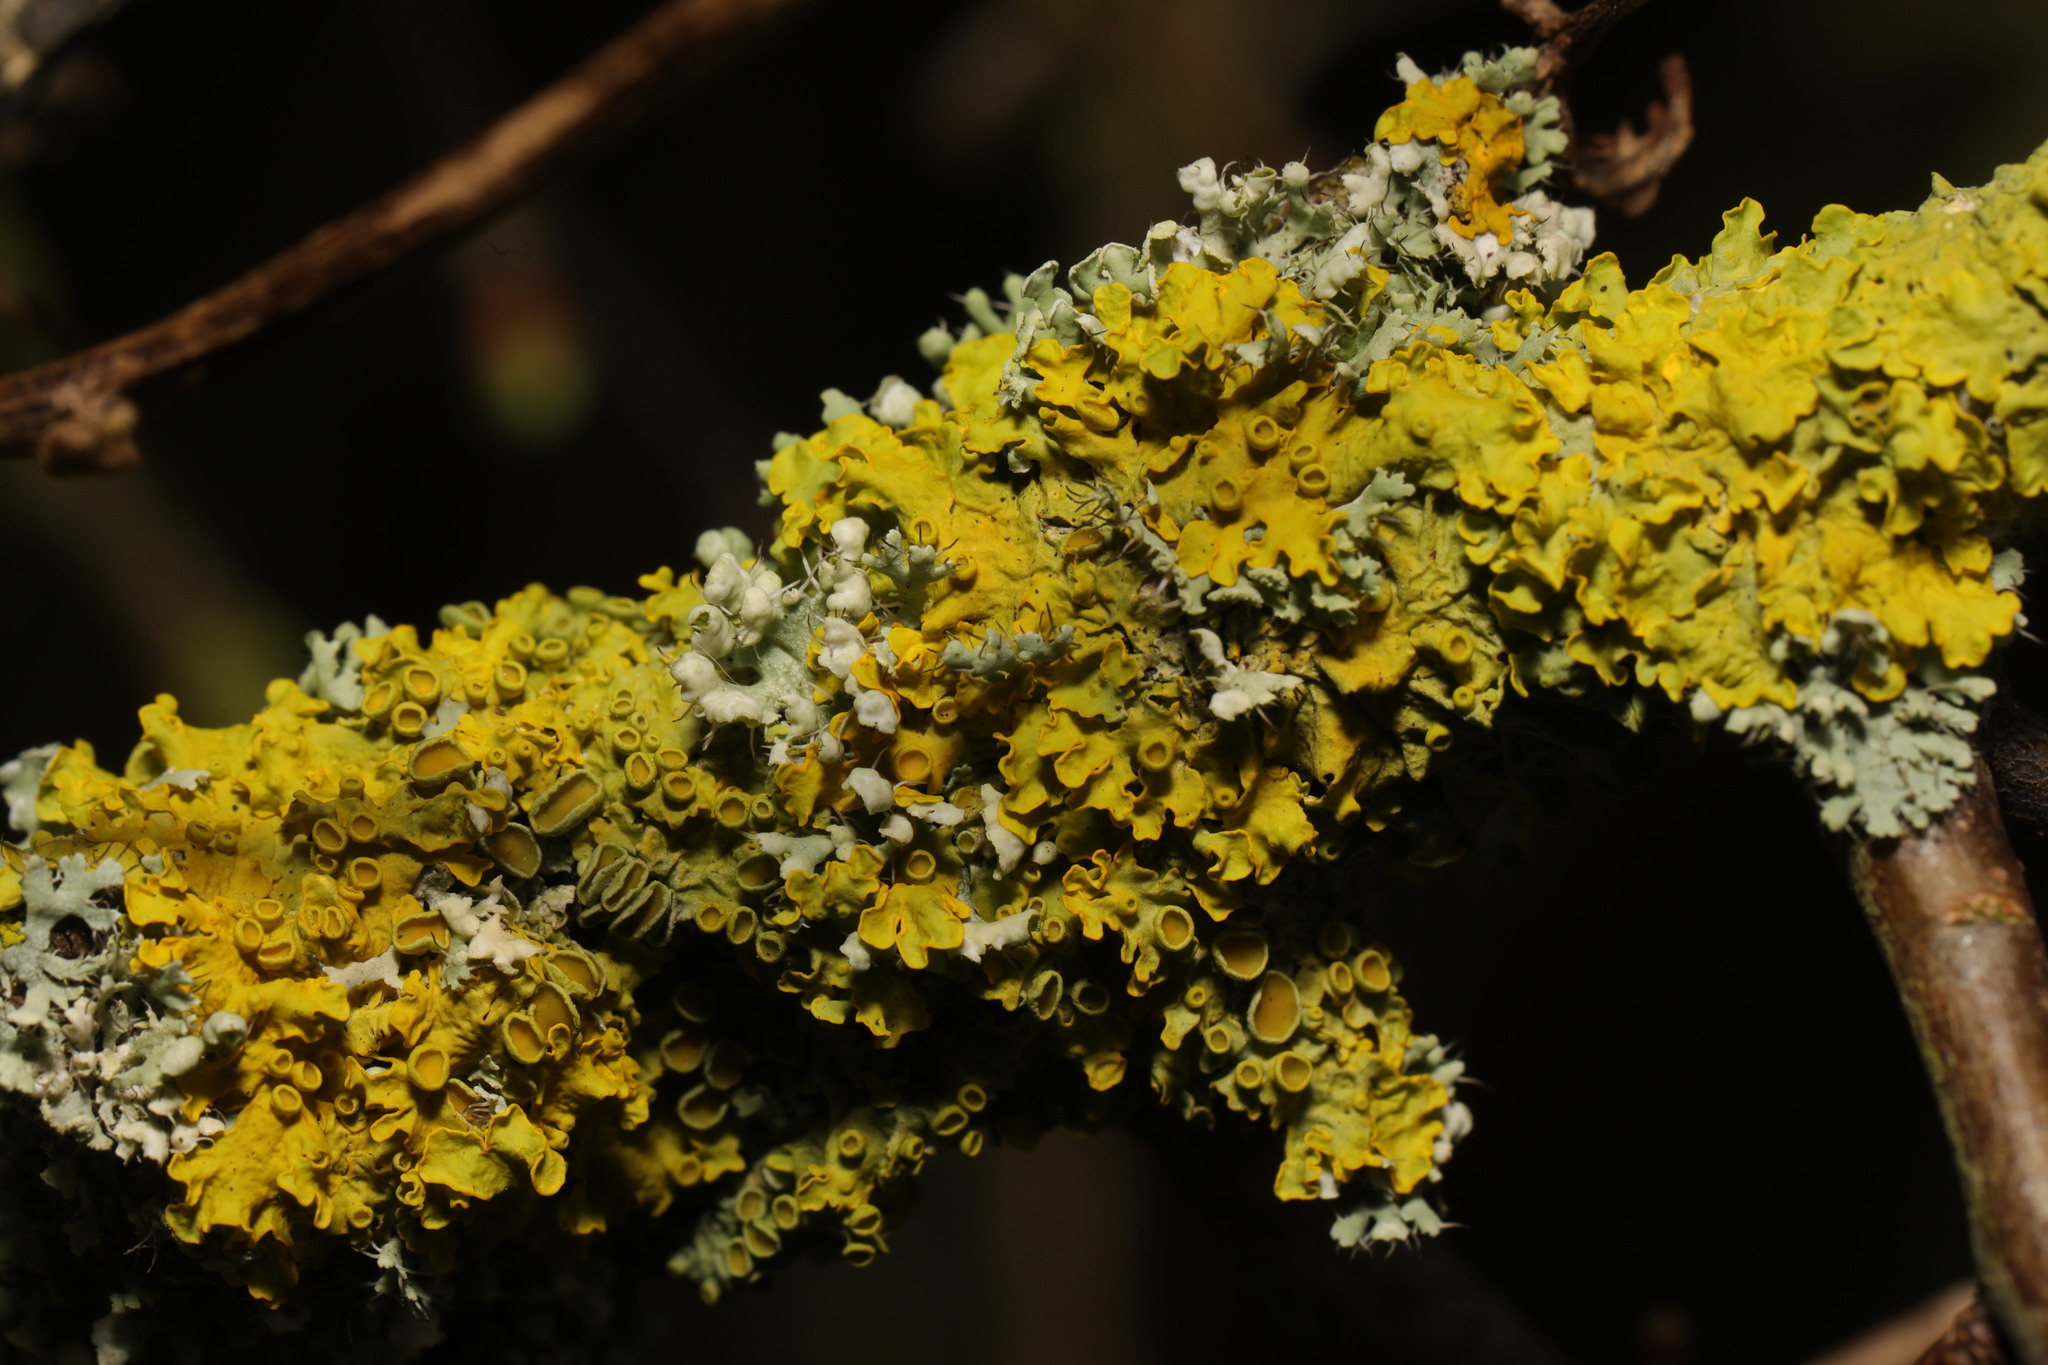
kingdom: Fungi
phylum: Ascomycota
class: Lecanoromycetes
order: Teloschistales
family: Teloschistaceae
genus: Xanthoria
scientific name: Xanthoria parietina
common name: Common orange lichen
